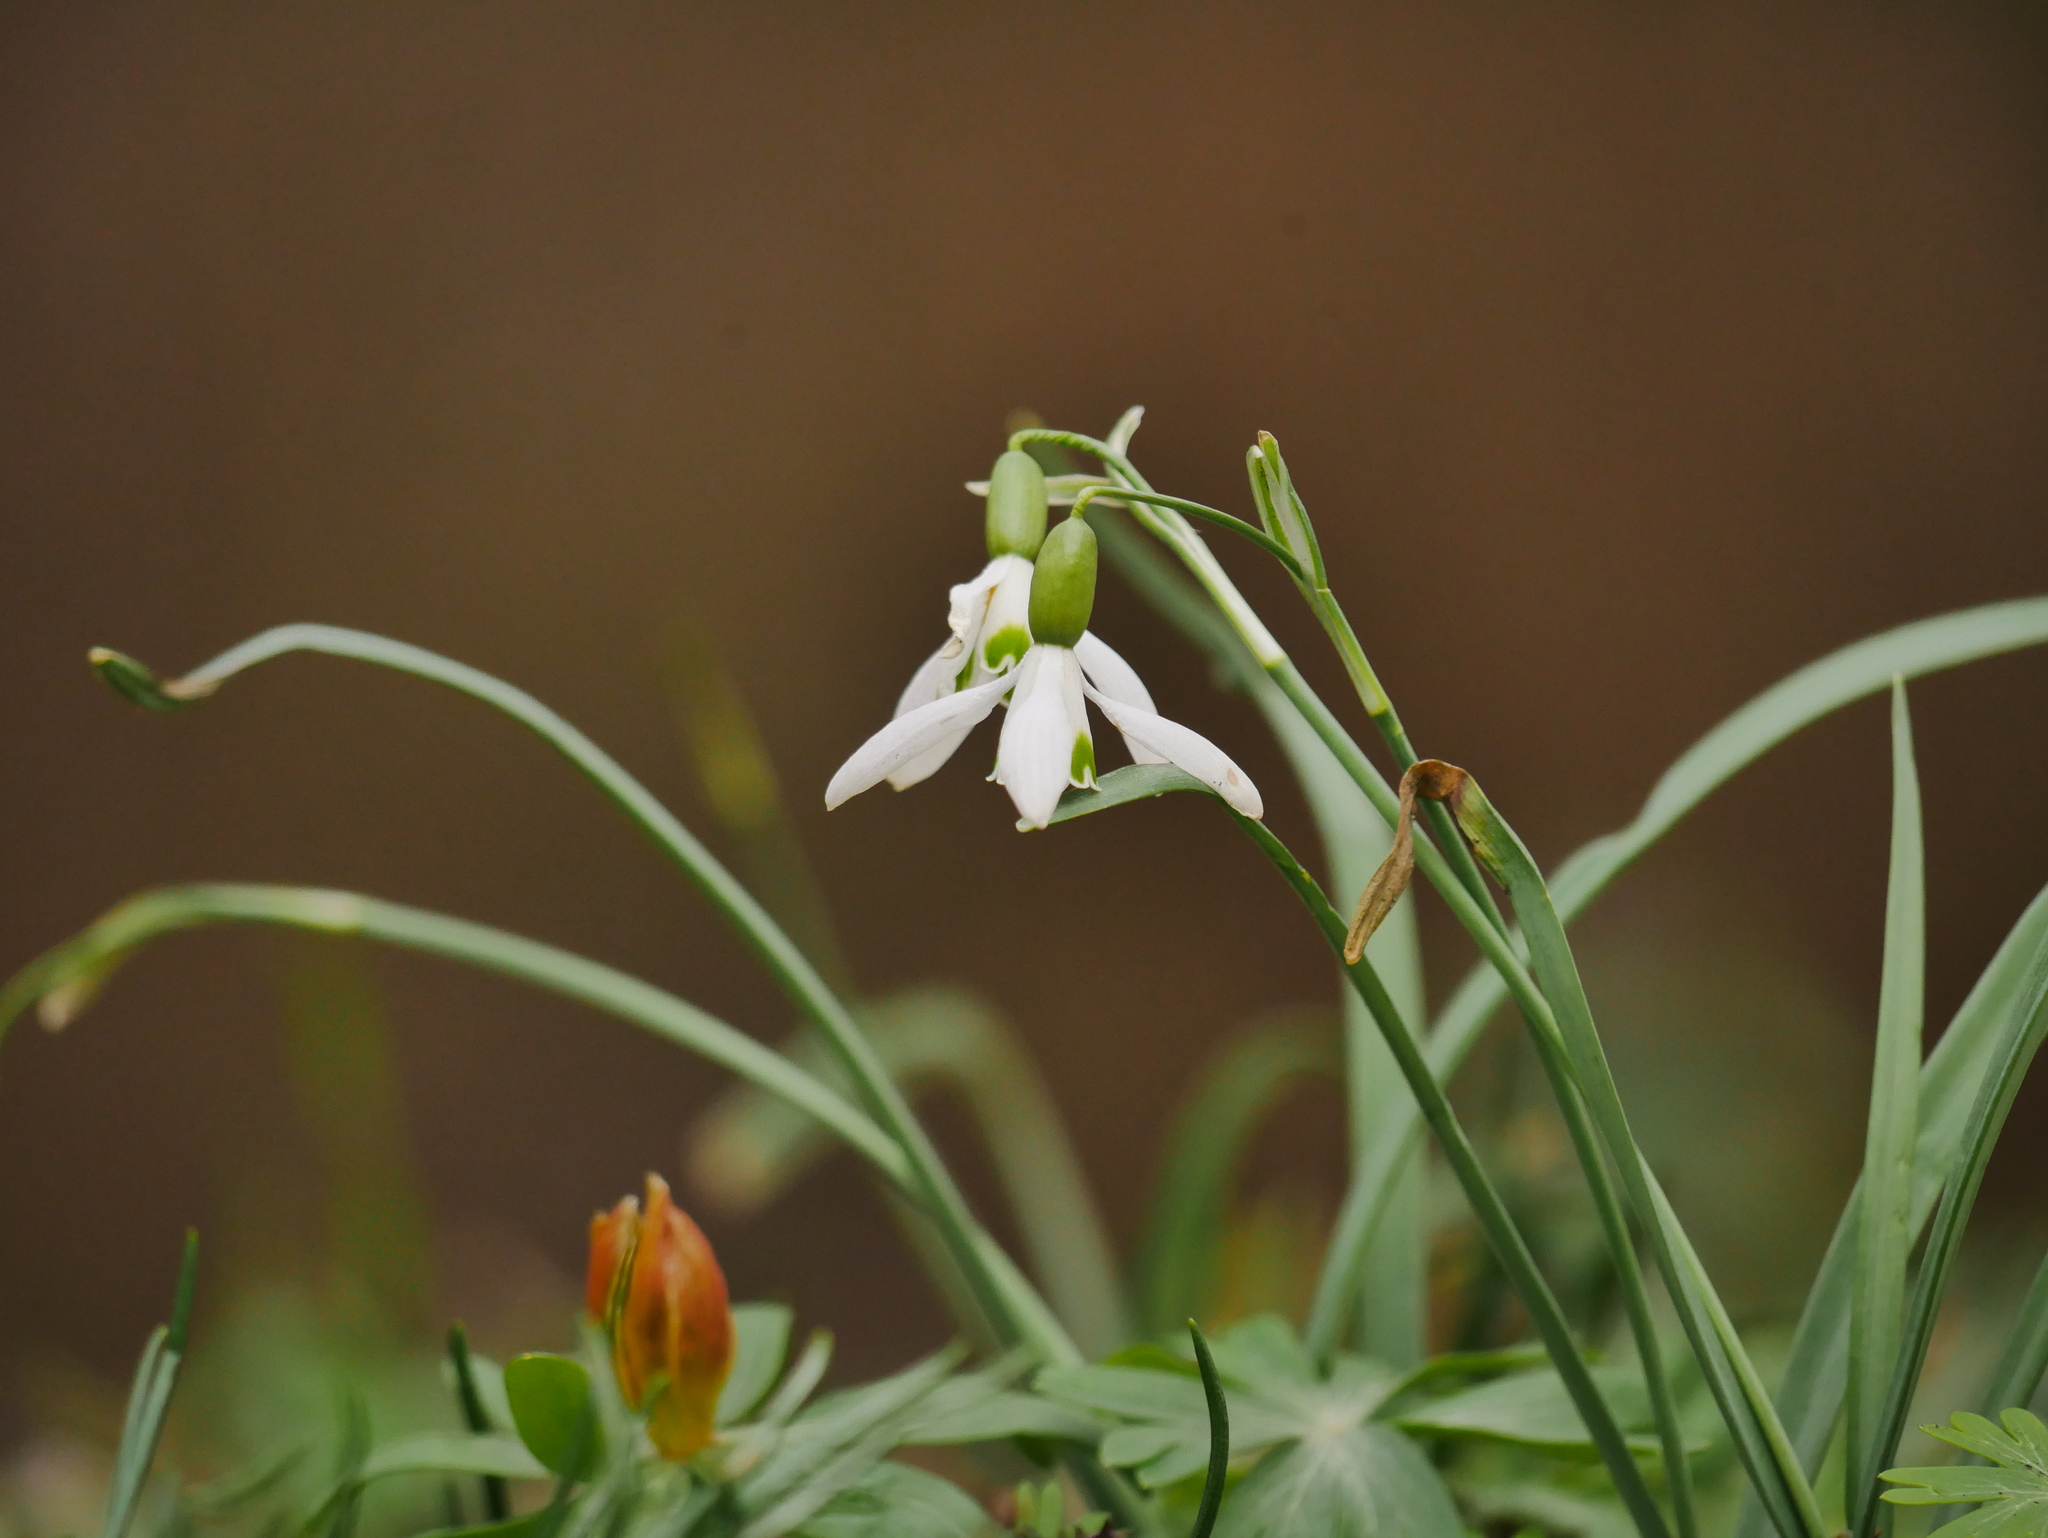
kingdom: Plantae
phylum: Tracheophyta
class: Liliopsida
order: Asparagales
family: Amaryllidaceae
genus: Galanthus
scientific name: Galanthus nivalis
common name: Snowdrop
